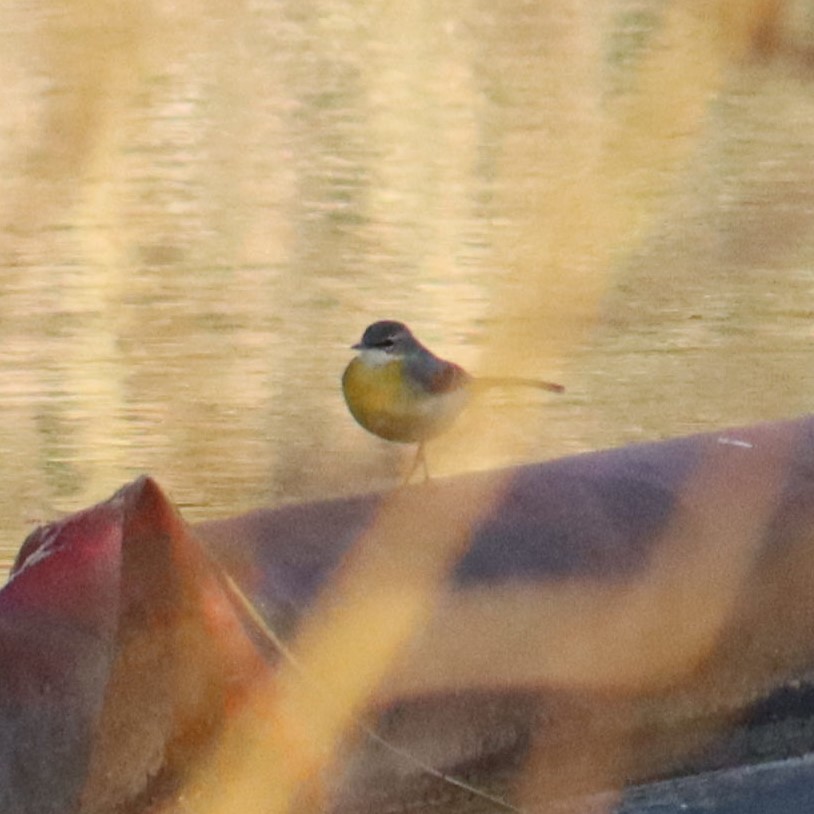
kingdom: Animalia
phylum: Chordata
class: Aves
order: Passeriformes
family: Motacillidae
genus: Motacilla
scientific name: Motacilla cinerea
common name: Grey wagtail
